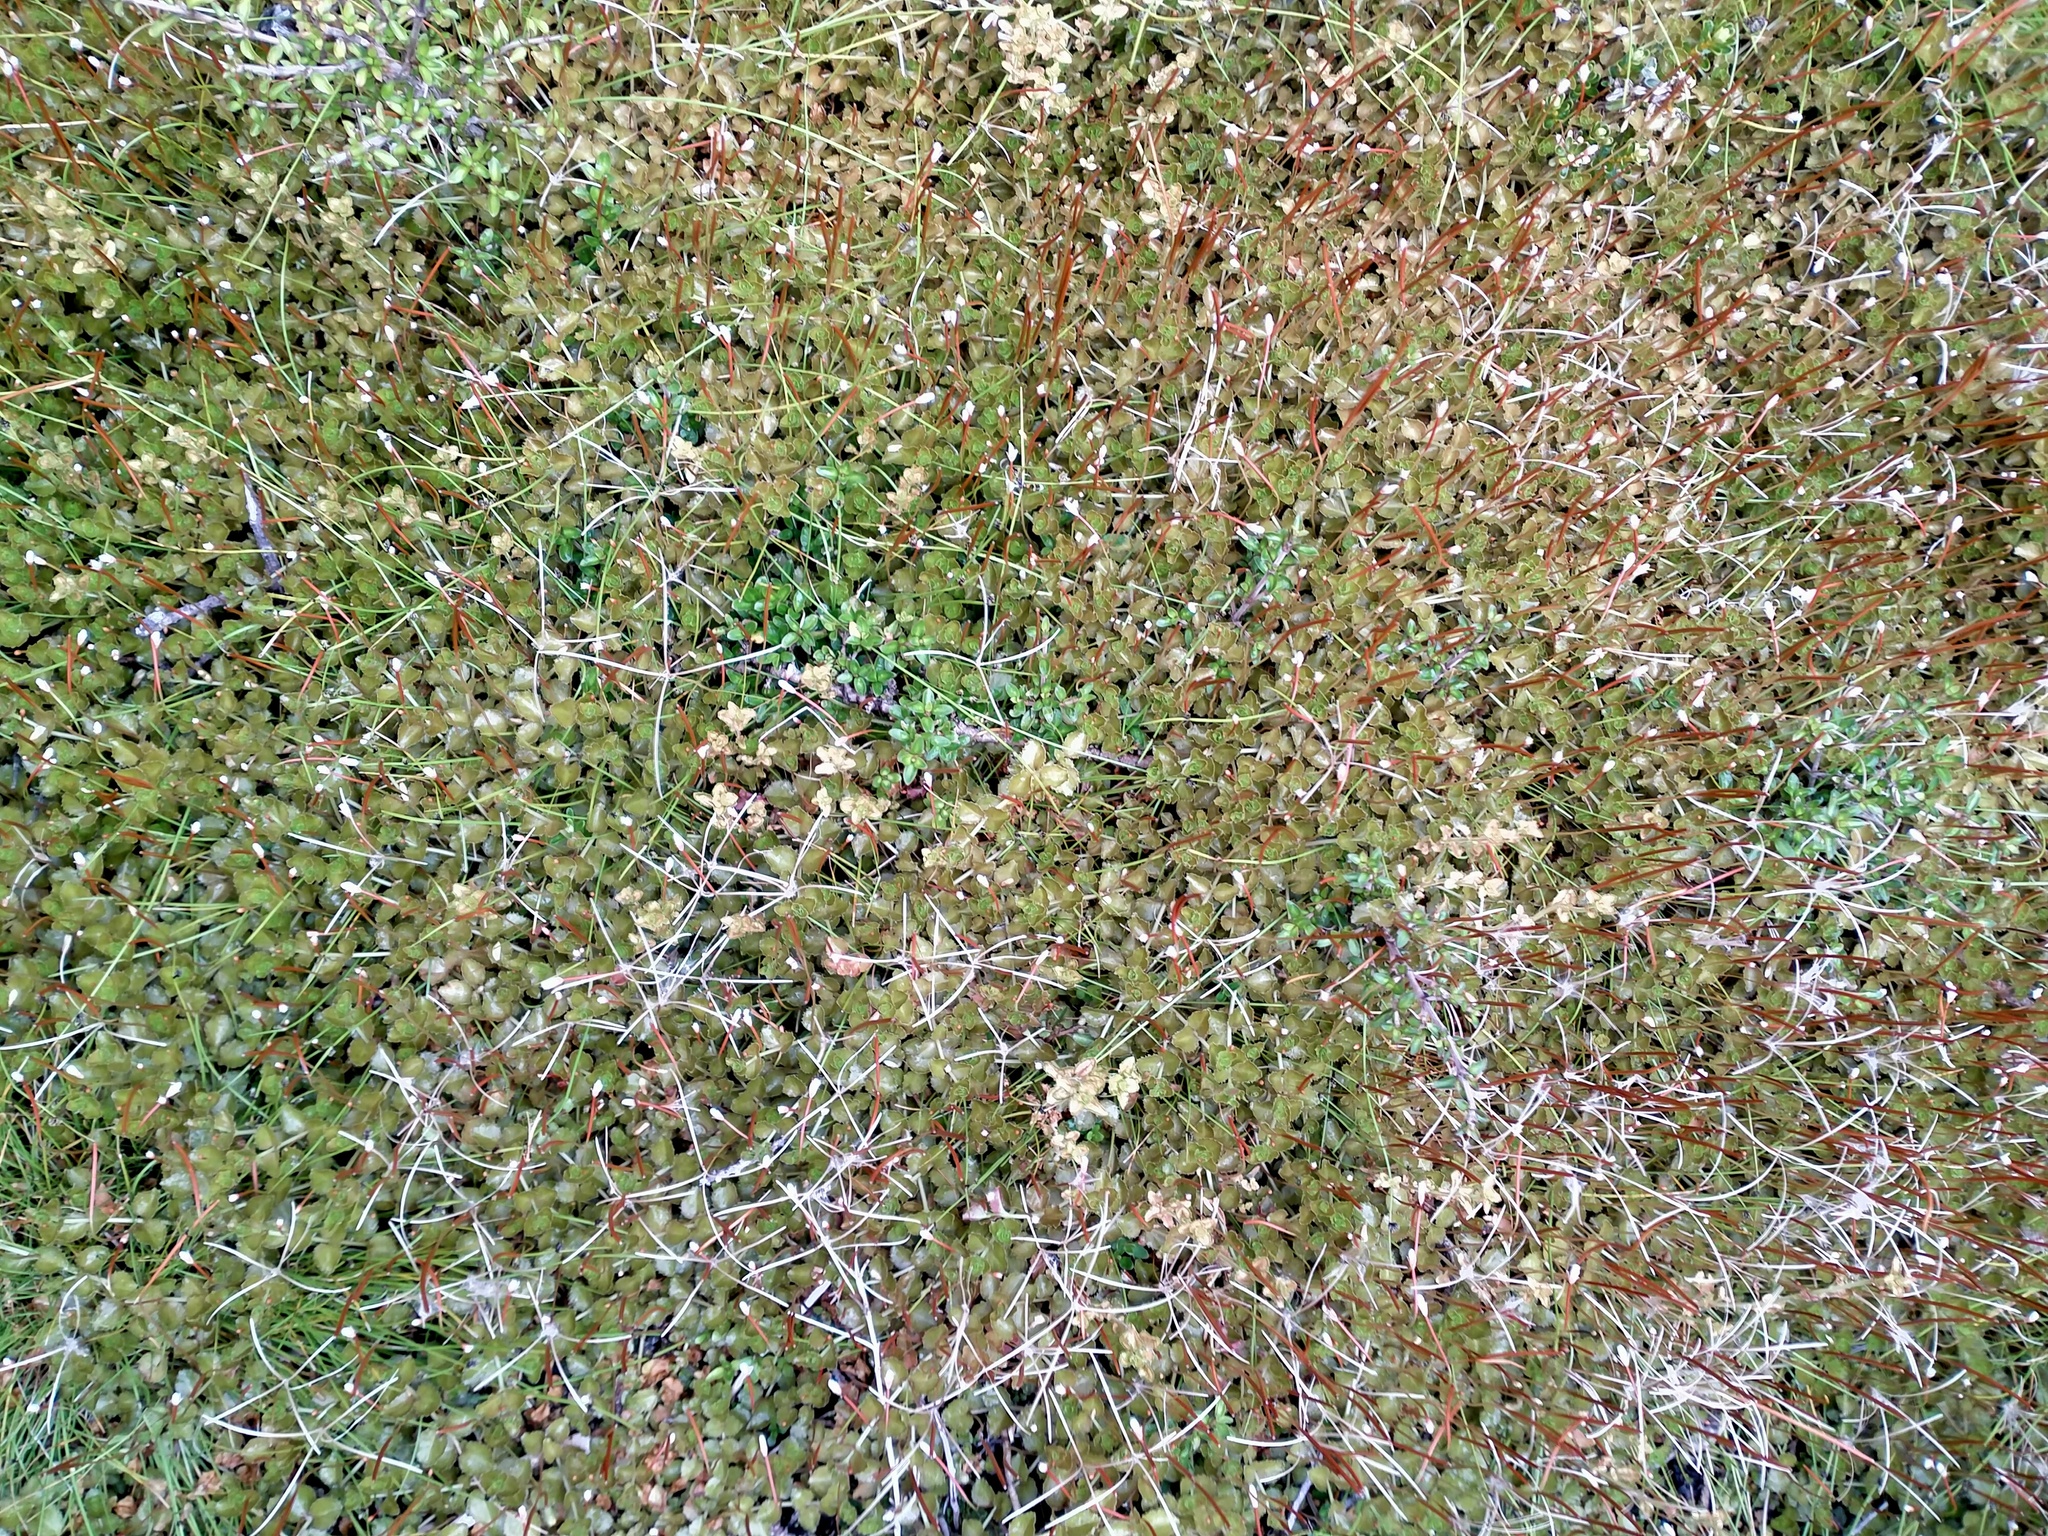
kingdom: Plantae
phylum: Tracheophyta
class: Magnoliopsida
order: Myrtales
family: Onagraceae
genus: Epilobium
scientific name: Epilobium pedunculare
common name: Rockery willowherb
